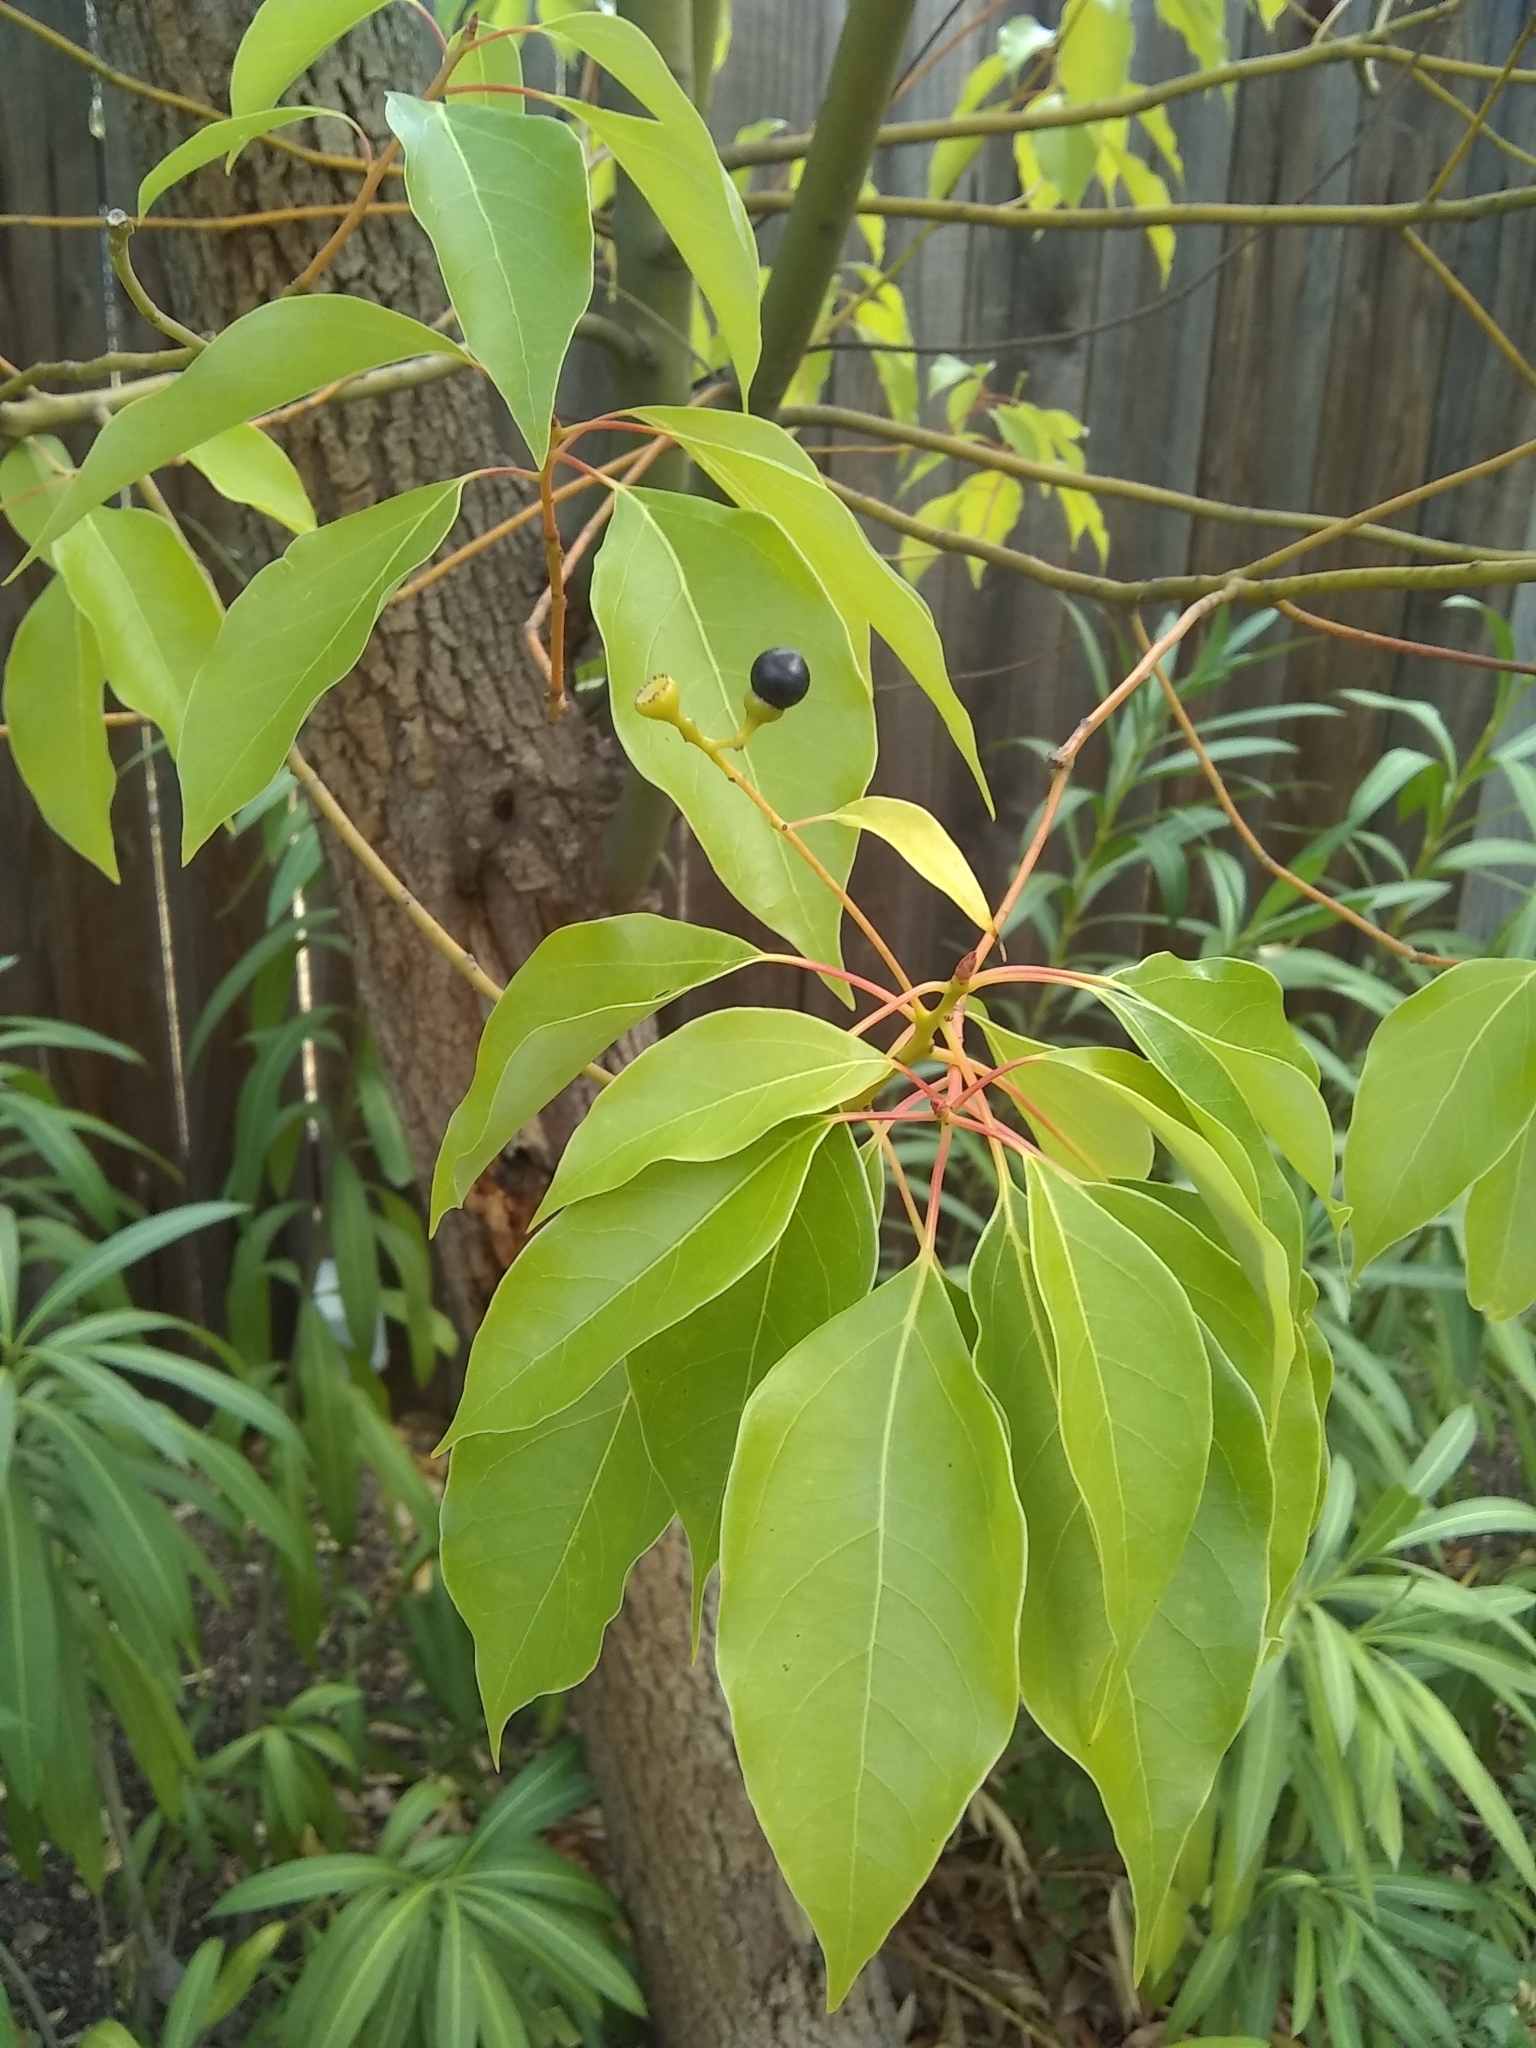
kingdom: Plantae
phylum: Tracheophyta
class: Magnoliopsida
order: Laurales
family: Lauraceae
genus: Cinnamomum
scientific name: Cinnamomum camphora
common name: Camphortree
